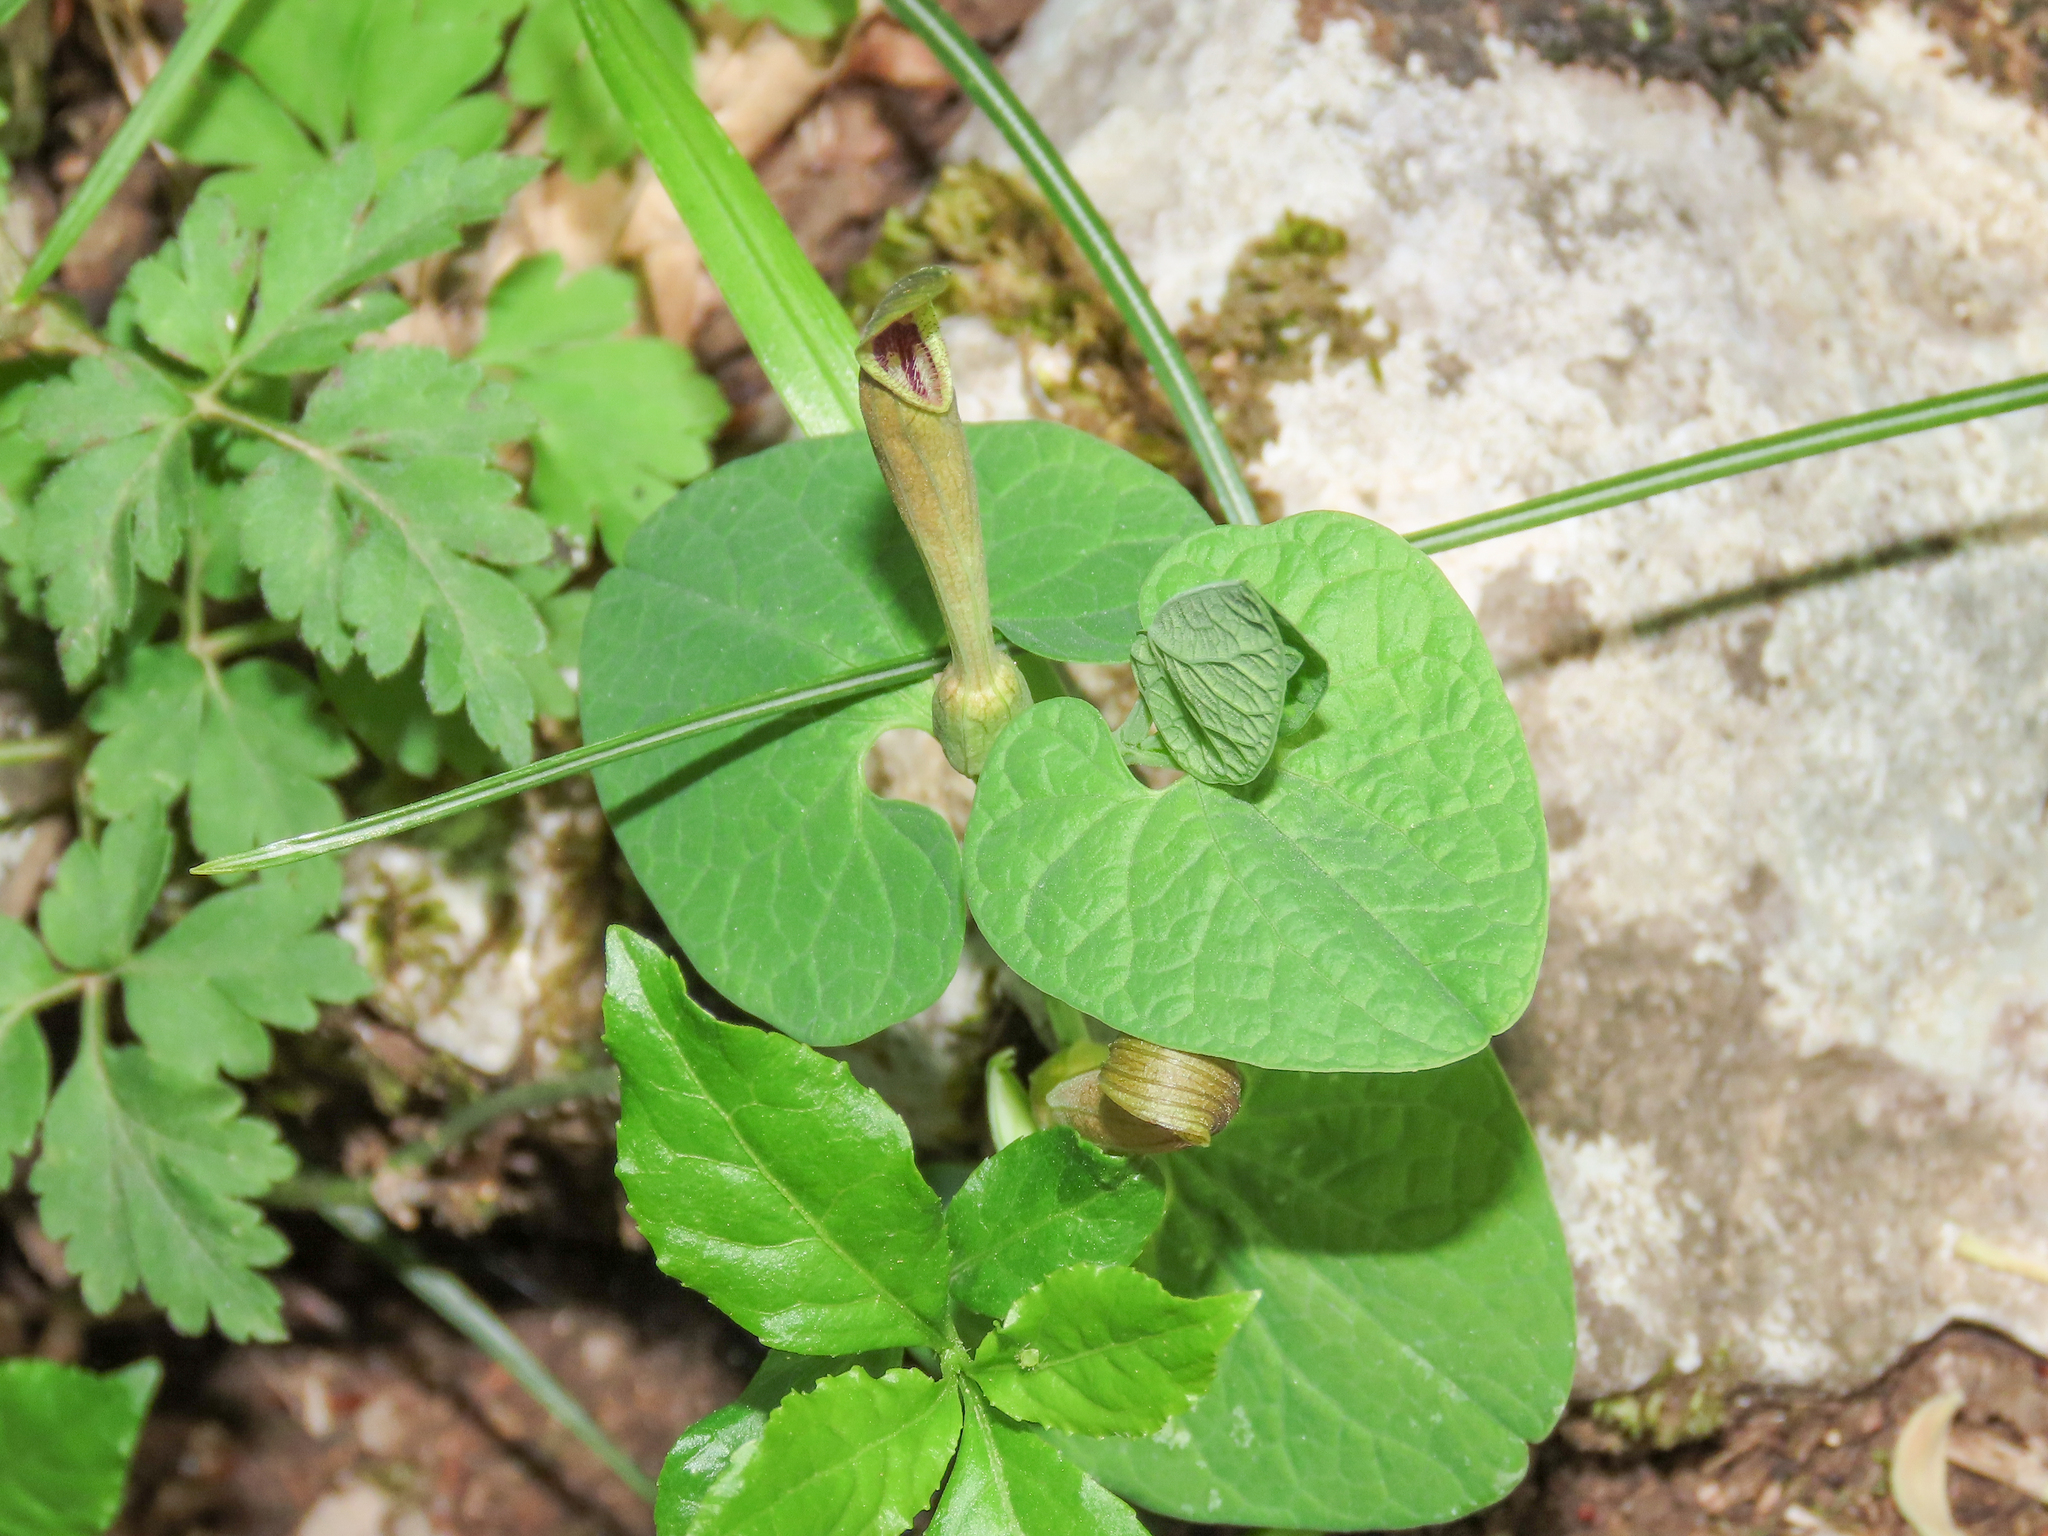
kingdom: Plantae
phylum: Tracheophyta
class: Magnoliopsida
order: Piperales
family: Aristolochiaceae
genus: Aristolochia
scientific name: Aristolochia lutea
